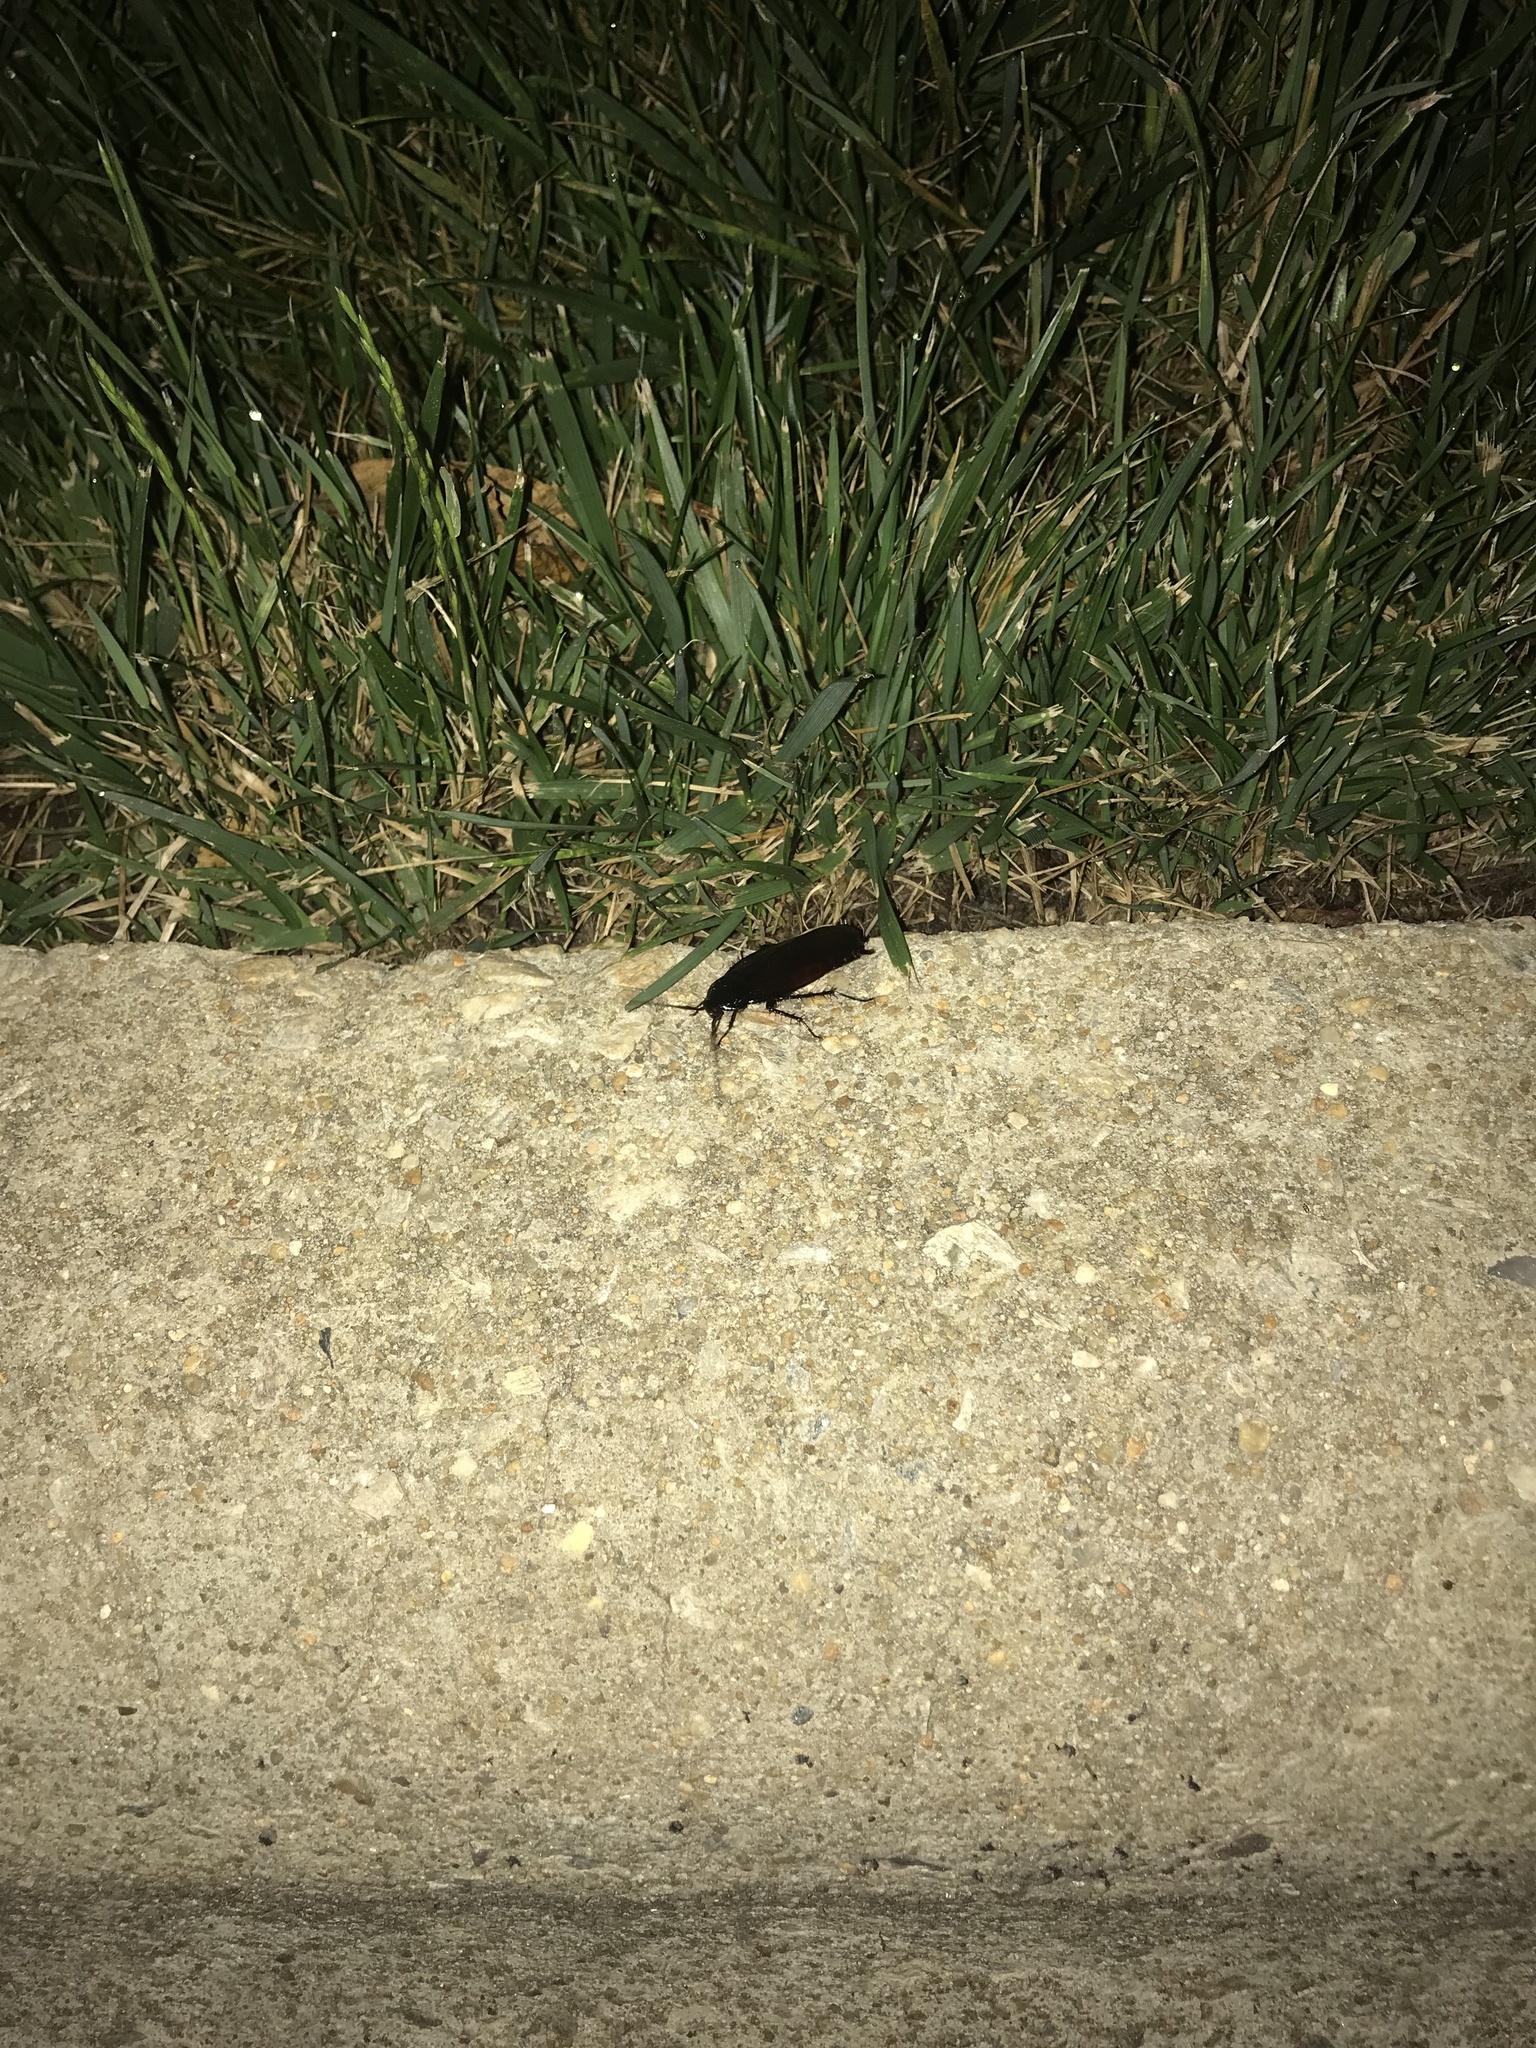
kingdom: Animalia
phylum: Arthropoda
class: Insecta
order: Blattodea
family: Blattidae
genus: Periplaneta
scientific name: Periplaneta fuliginosa
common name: Smokeybrown cockroad
